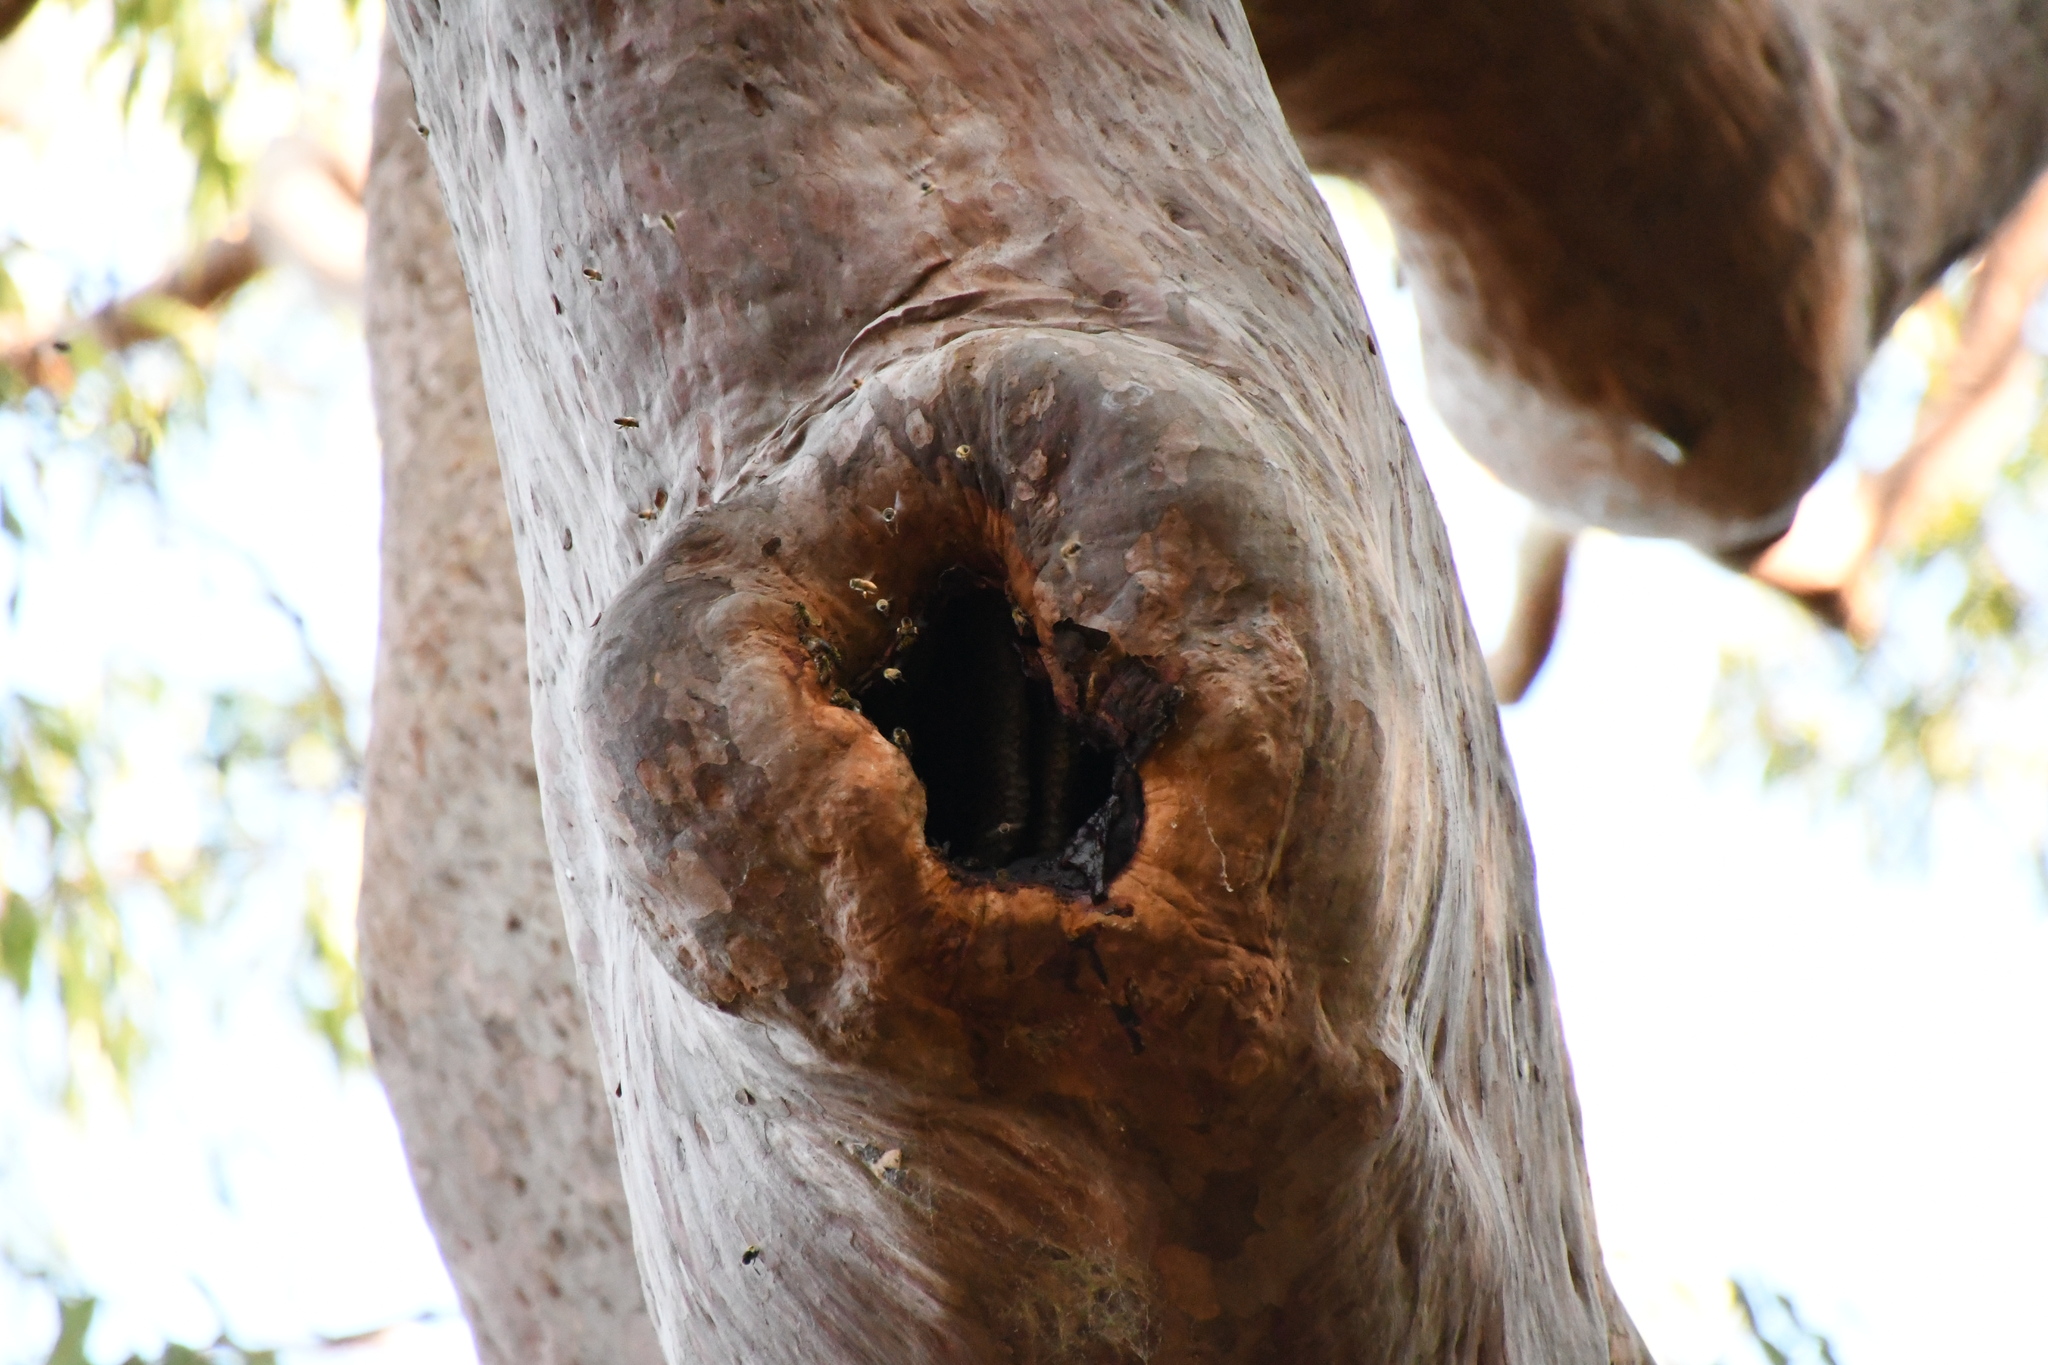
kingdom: Animalia
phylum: Arthropoda
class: Insecta
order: Hymenoptera
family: Apidae
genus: Apis
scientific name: Apis mellifera
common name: Honey bee
